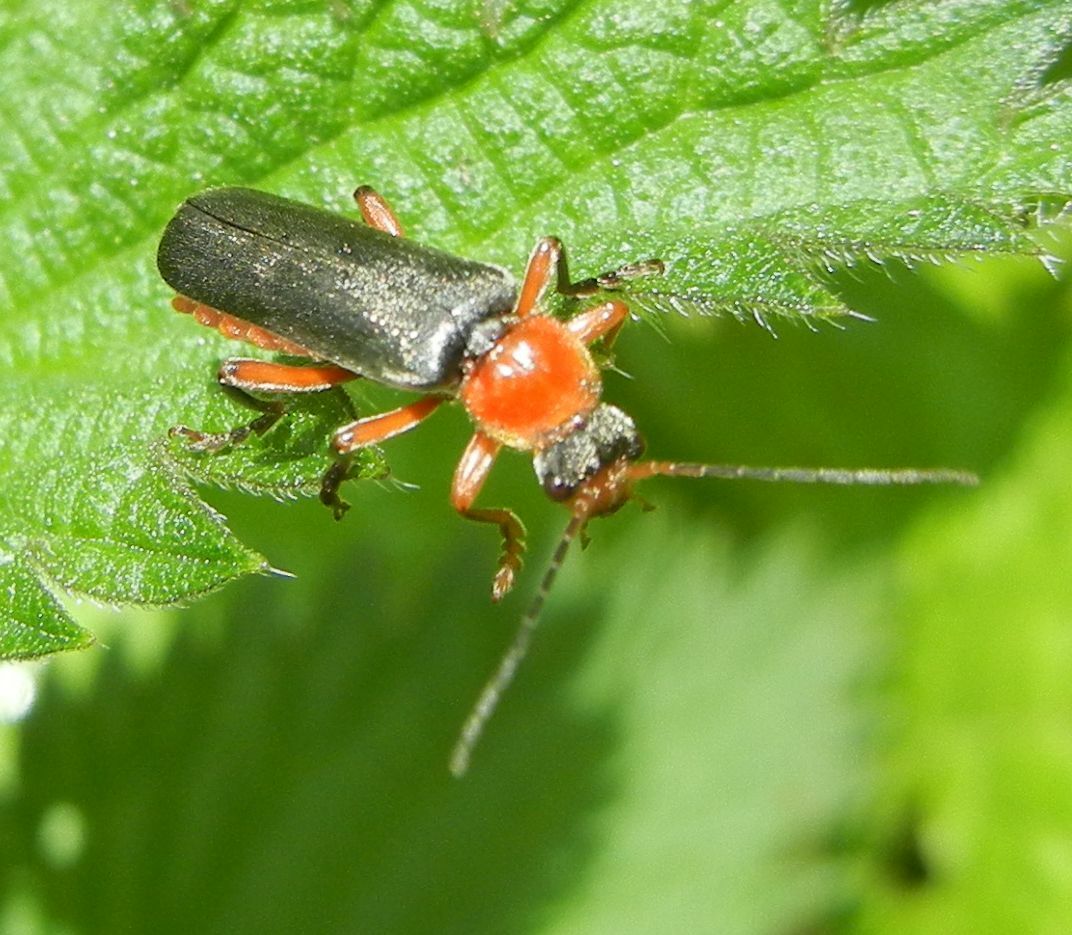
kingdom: Animalia
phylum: Arthropoda
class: Insecta
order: Coleoptera
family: Cantharidae
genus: Cantharis
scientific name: Cantharis pellucida
